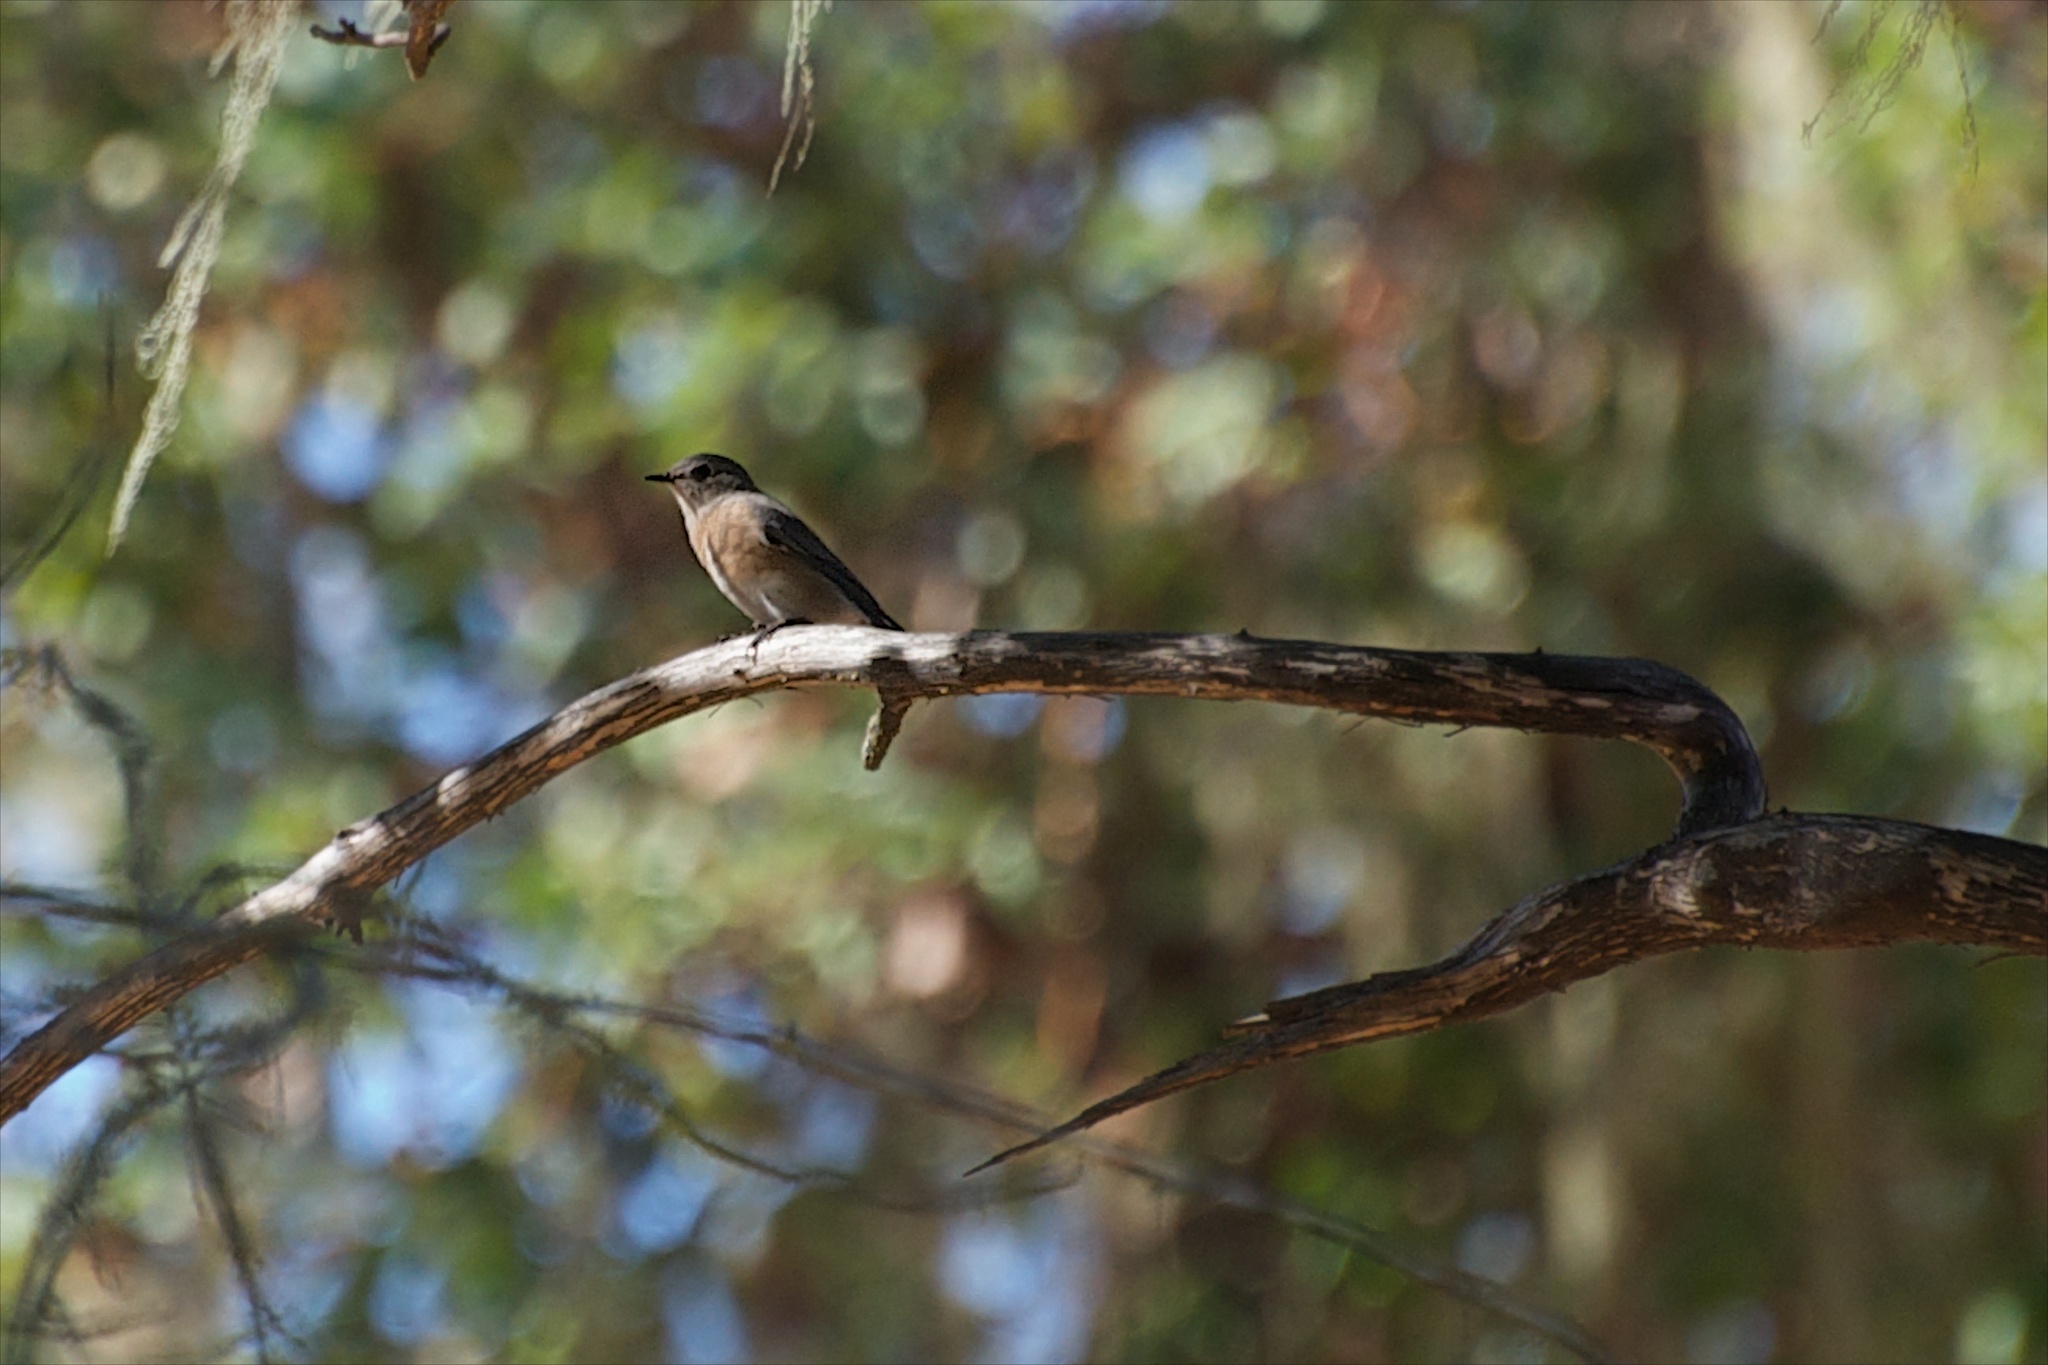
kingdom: Animalia
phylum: Chordata
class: Aves
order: Passeriformes
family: Turdidae
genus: Sialia
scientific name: Sialia mexicana
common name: Western bluebird
